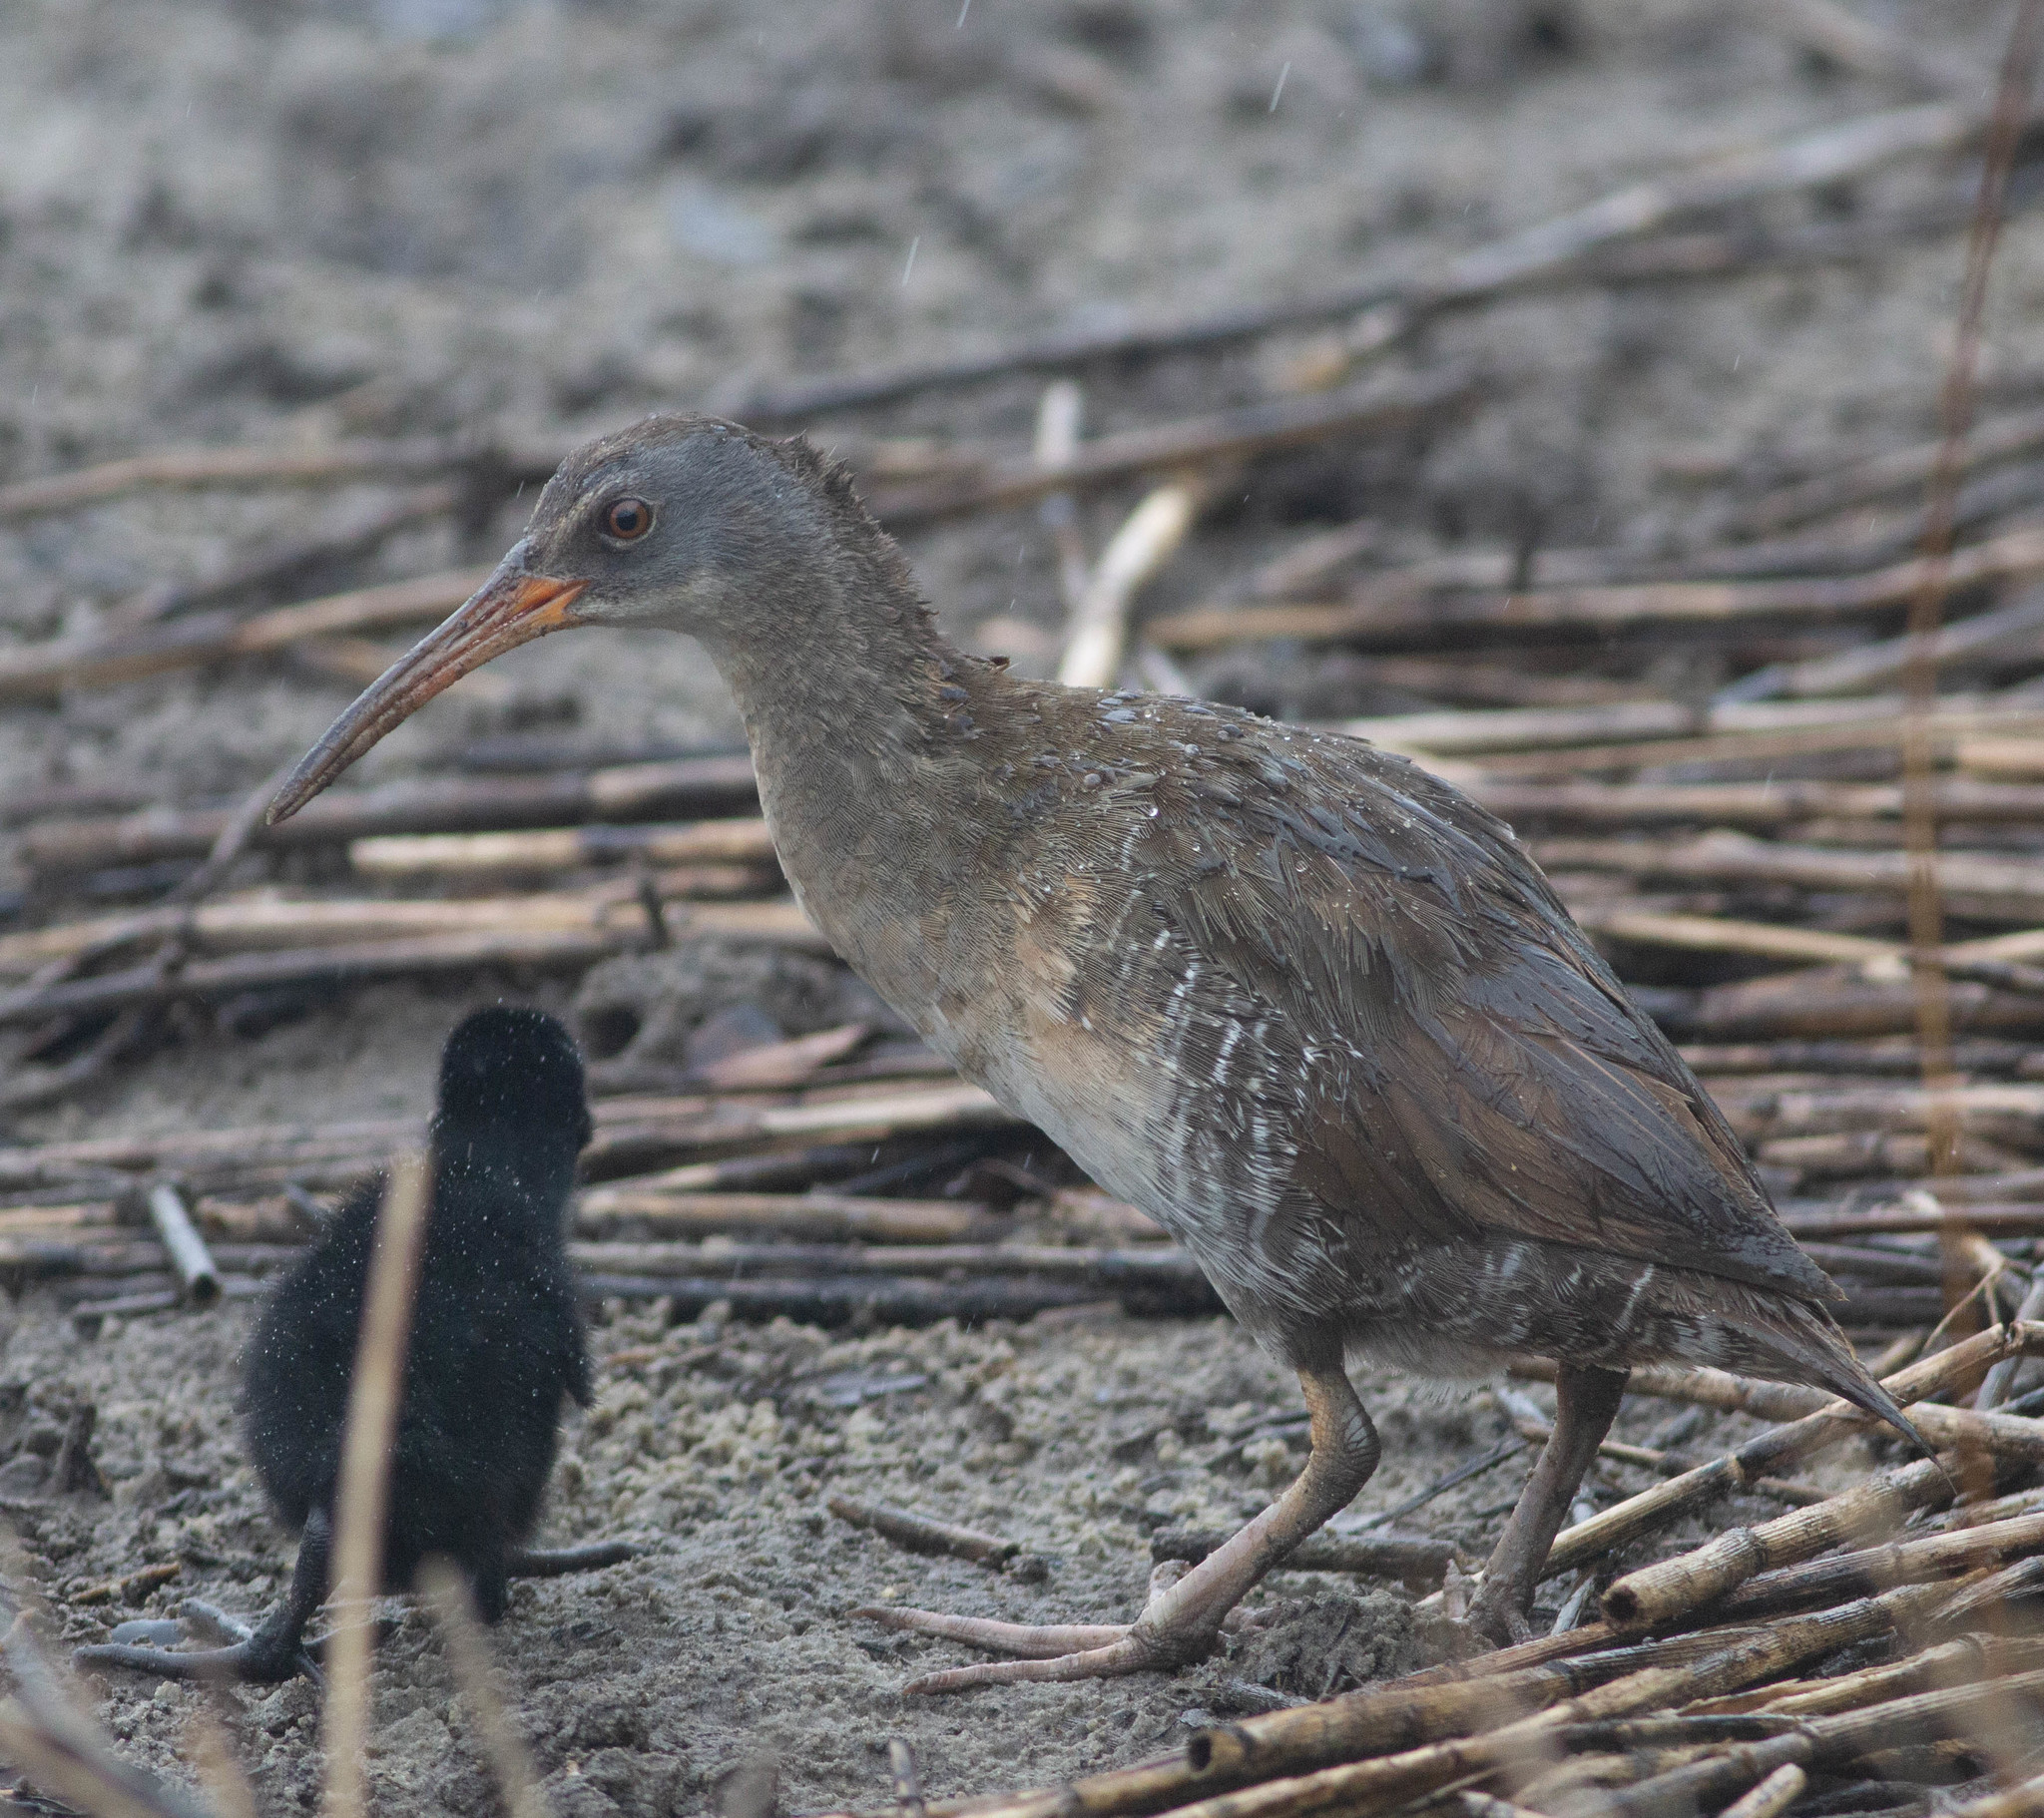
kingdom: Animalia
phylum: Chordata
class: Aves
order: Gruiformes
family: Rallidae
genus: Rallus
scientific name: Rallus crepitans
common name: Clapper rail
